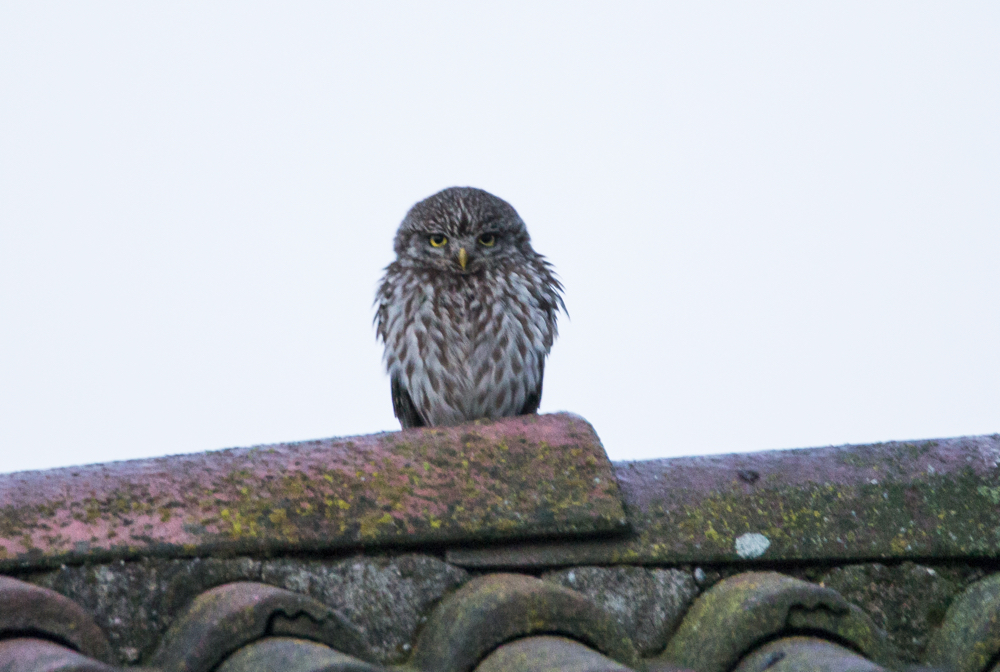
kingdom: Animalia
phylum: Chordata
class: Aves
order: Strigiformes
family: Strigidae
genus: Athene
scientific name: Athene noctua
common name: Little owl
